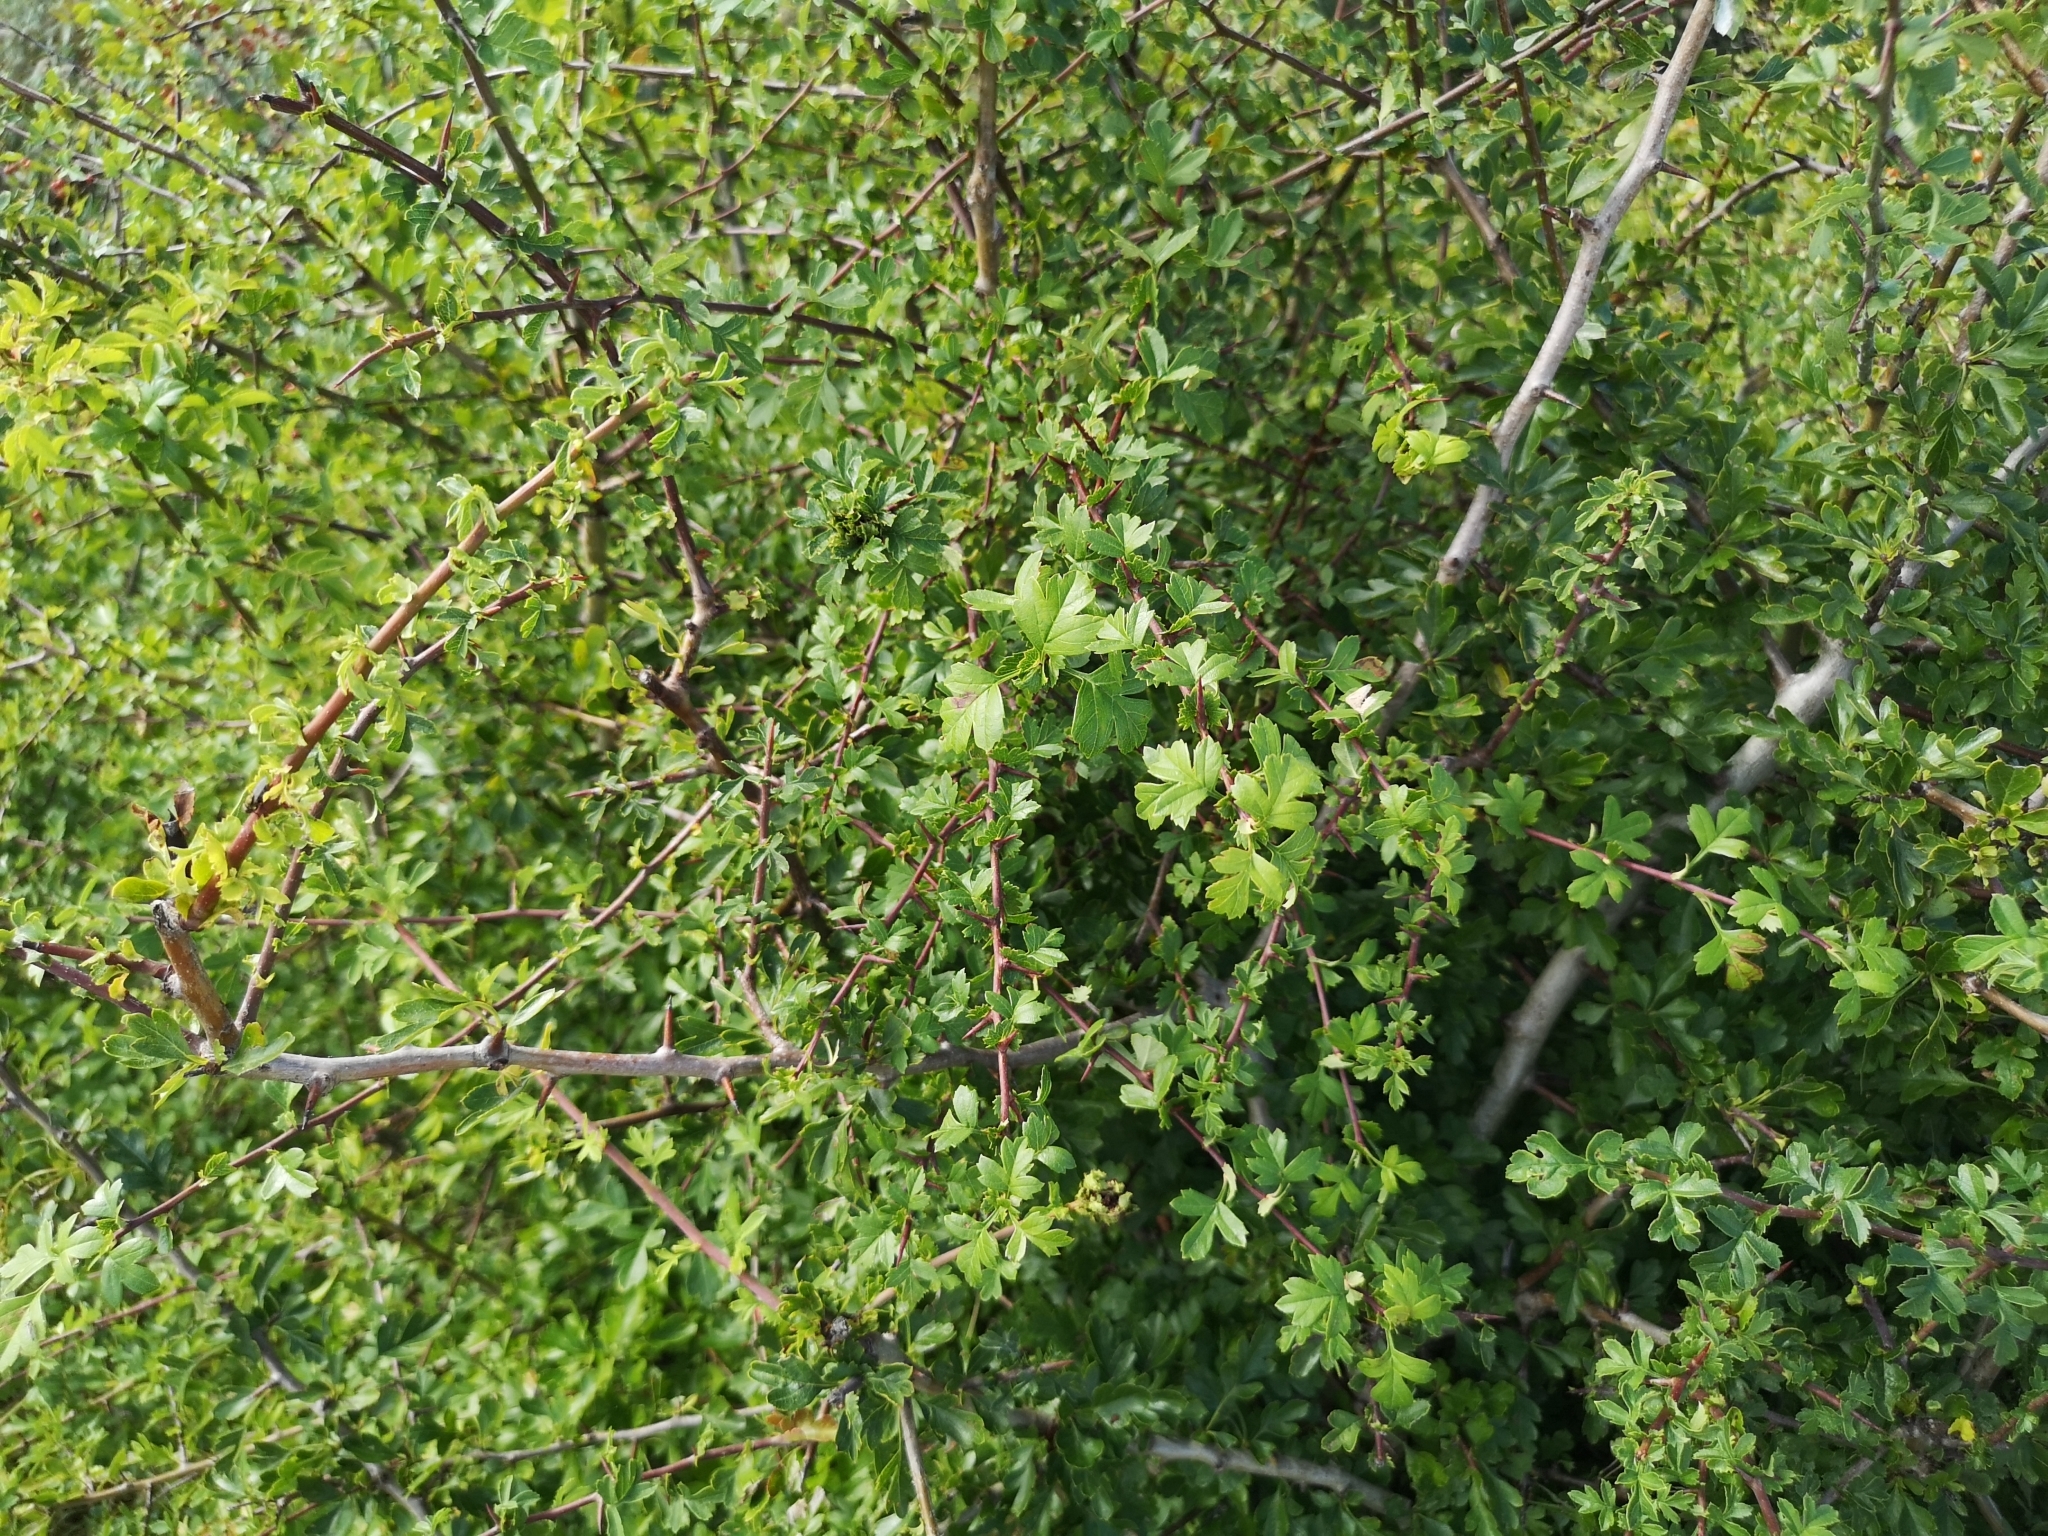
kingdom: Plantae
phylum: Tracheophyta
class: Magnoliopsida
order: Rosales
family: Rosaceae
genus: Crataegus
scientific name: Crataegus monogyna
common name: Hawthorn
